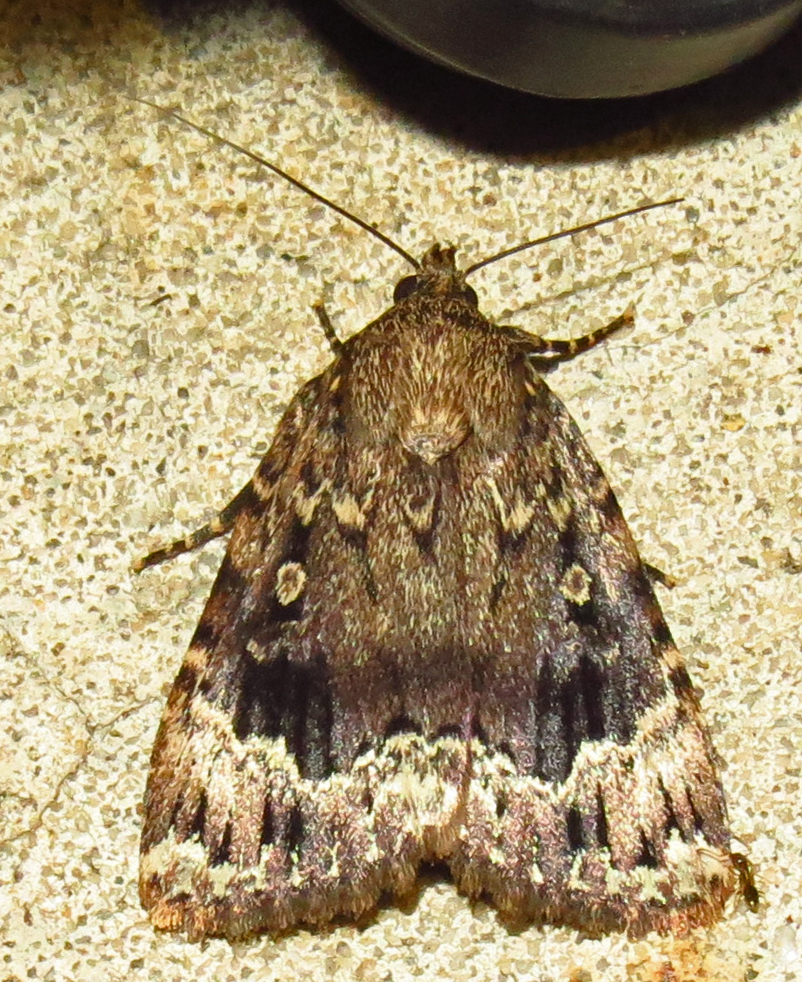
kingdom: Animalia
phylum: Arthropoda
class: Insecta
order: Lepidoptera
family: Noctuidae
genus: Amphipyra
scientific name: Amphipyra pyramidoides
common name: American copper underwing
